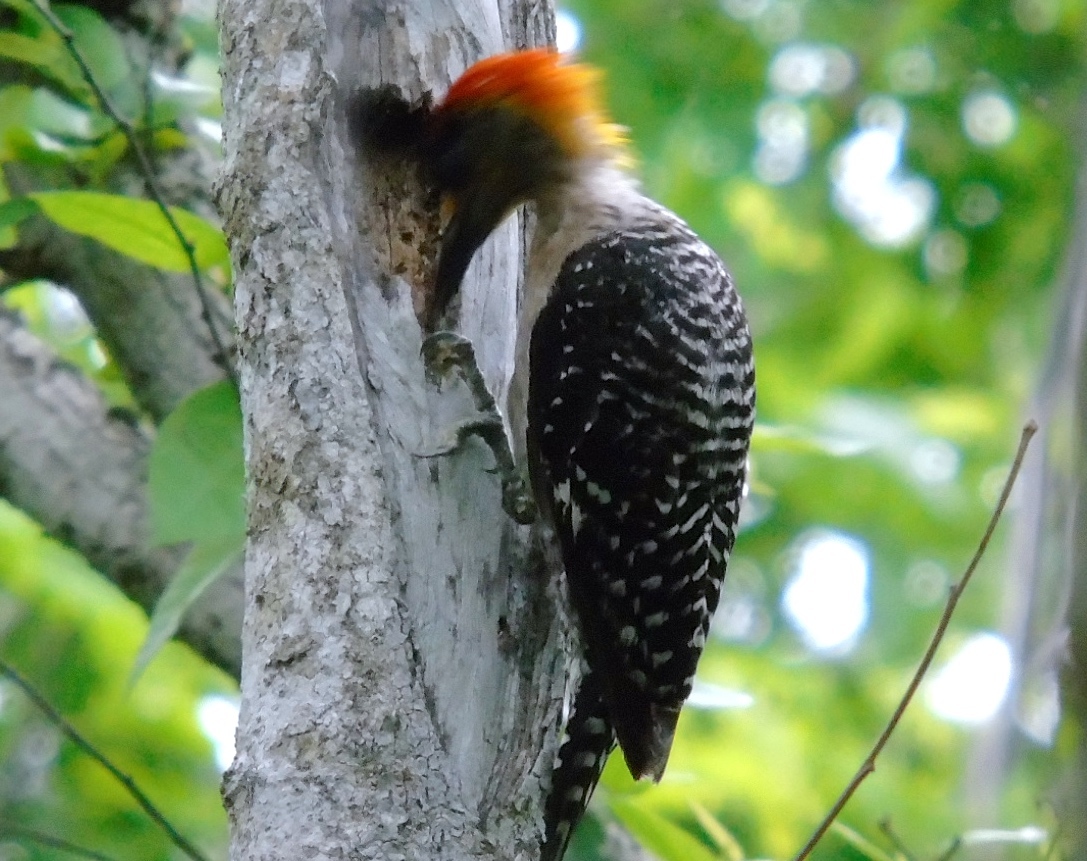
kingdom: Animalia
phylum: Chordata
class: Aves
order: Piciformes
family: Picidae
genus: Melanerpes
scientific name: Melanerpes chrysogenys
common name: Golden-cheeked woodpecker
